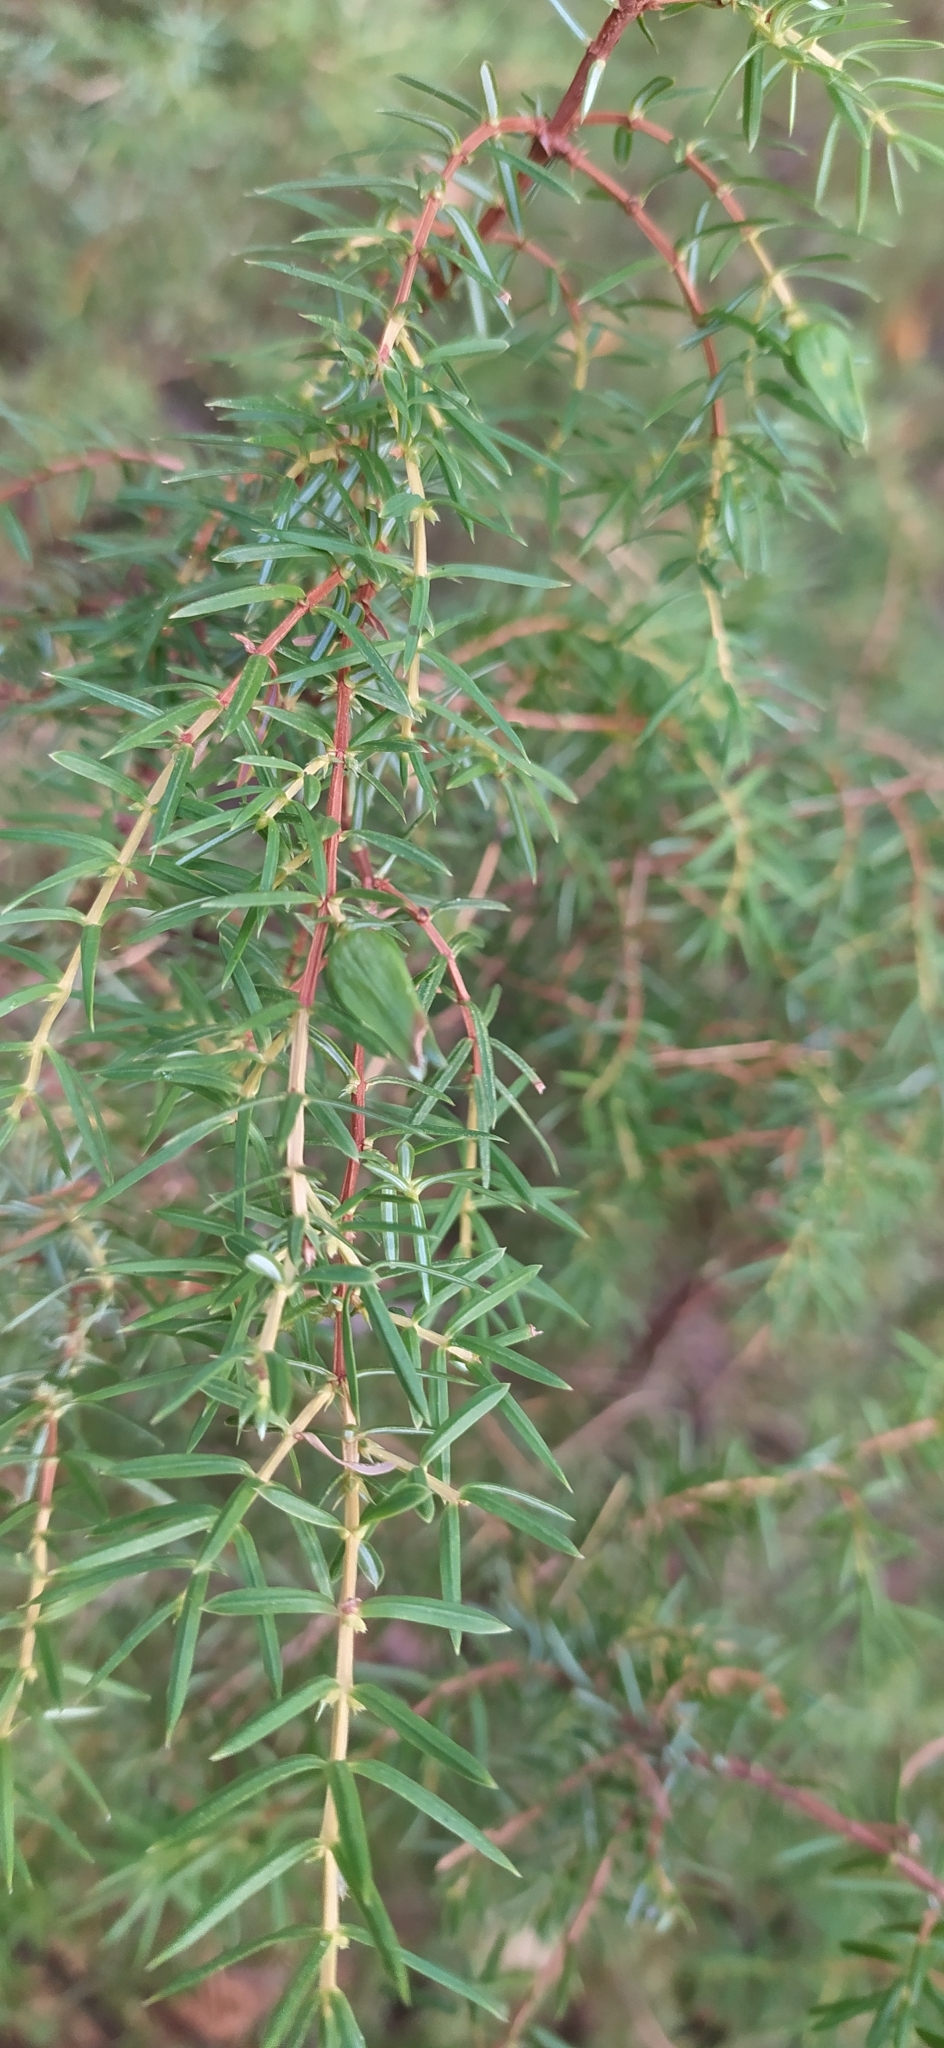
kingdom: Plantae
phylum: Tracheophyta
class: Pinopsida
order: Pinales
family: Cupressaceae
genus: Juniperus
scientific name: Juniperus communis
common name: Common juniper
